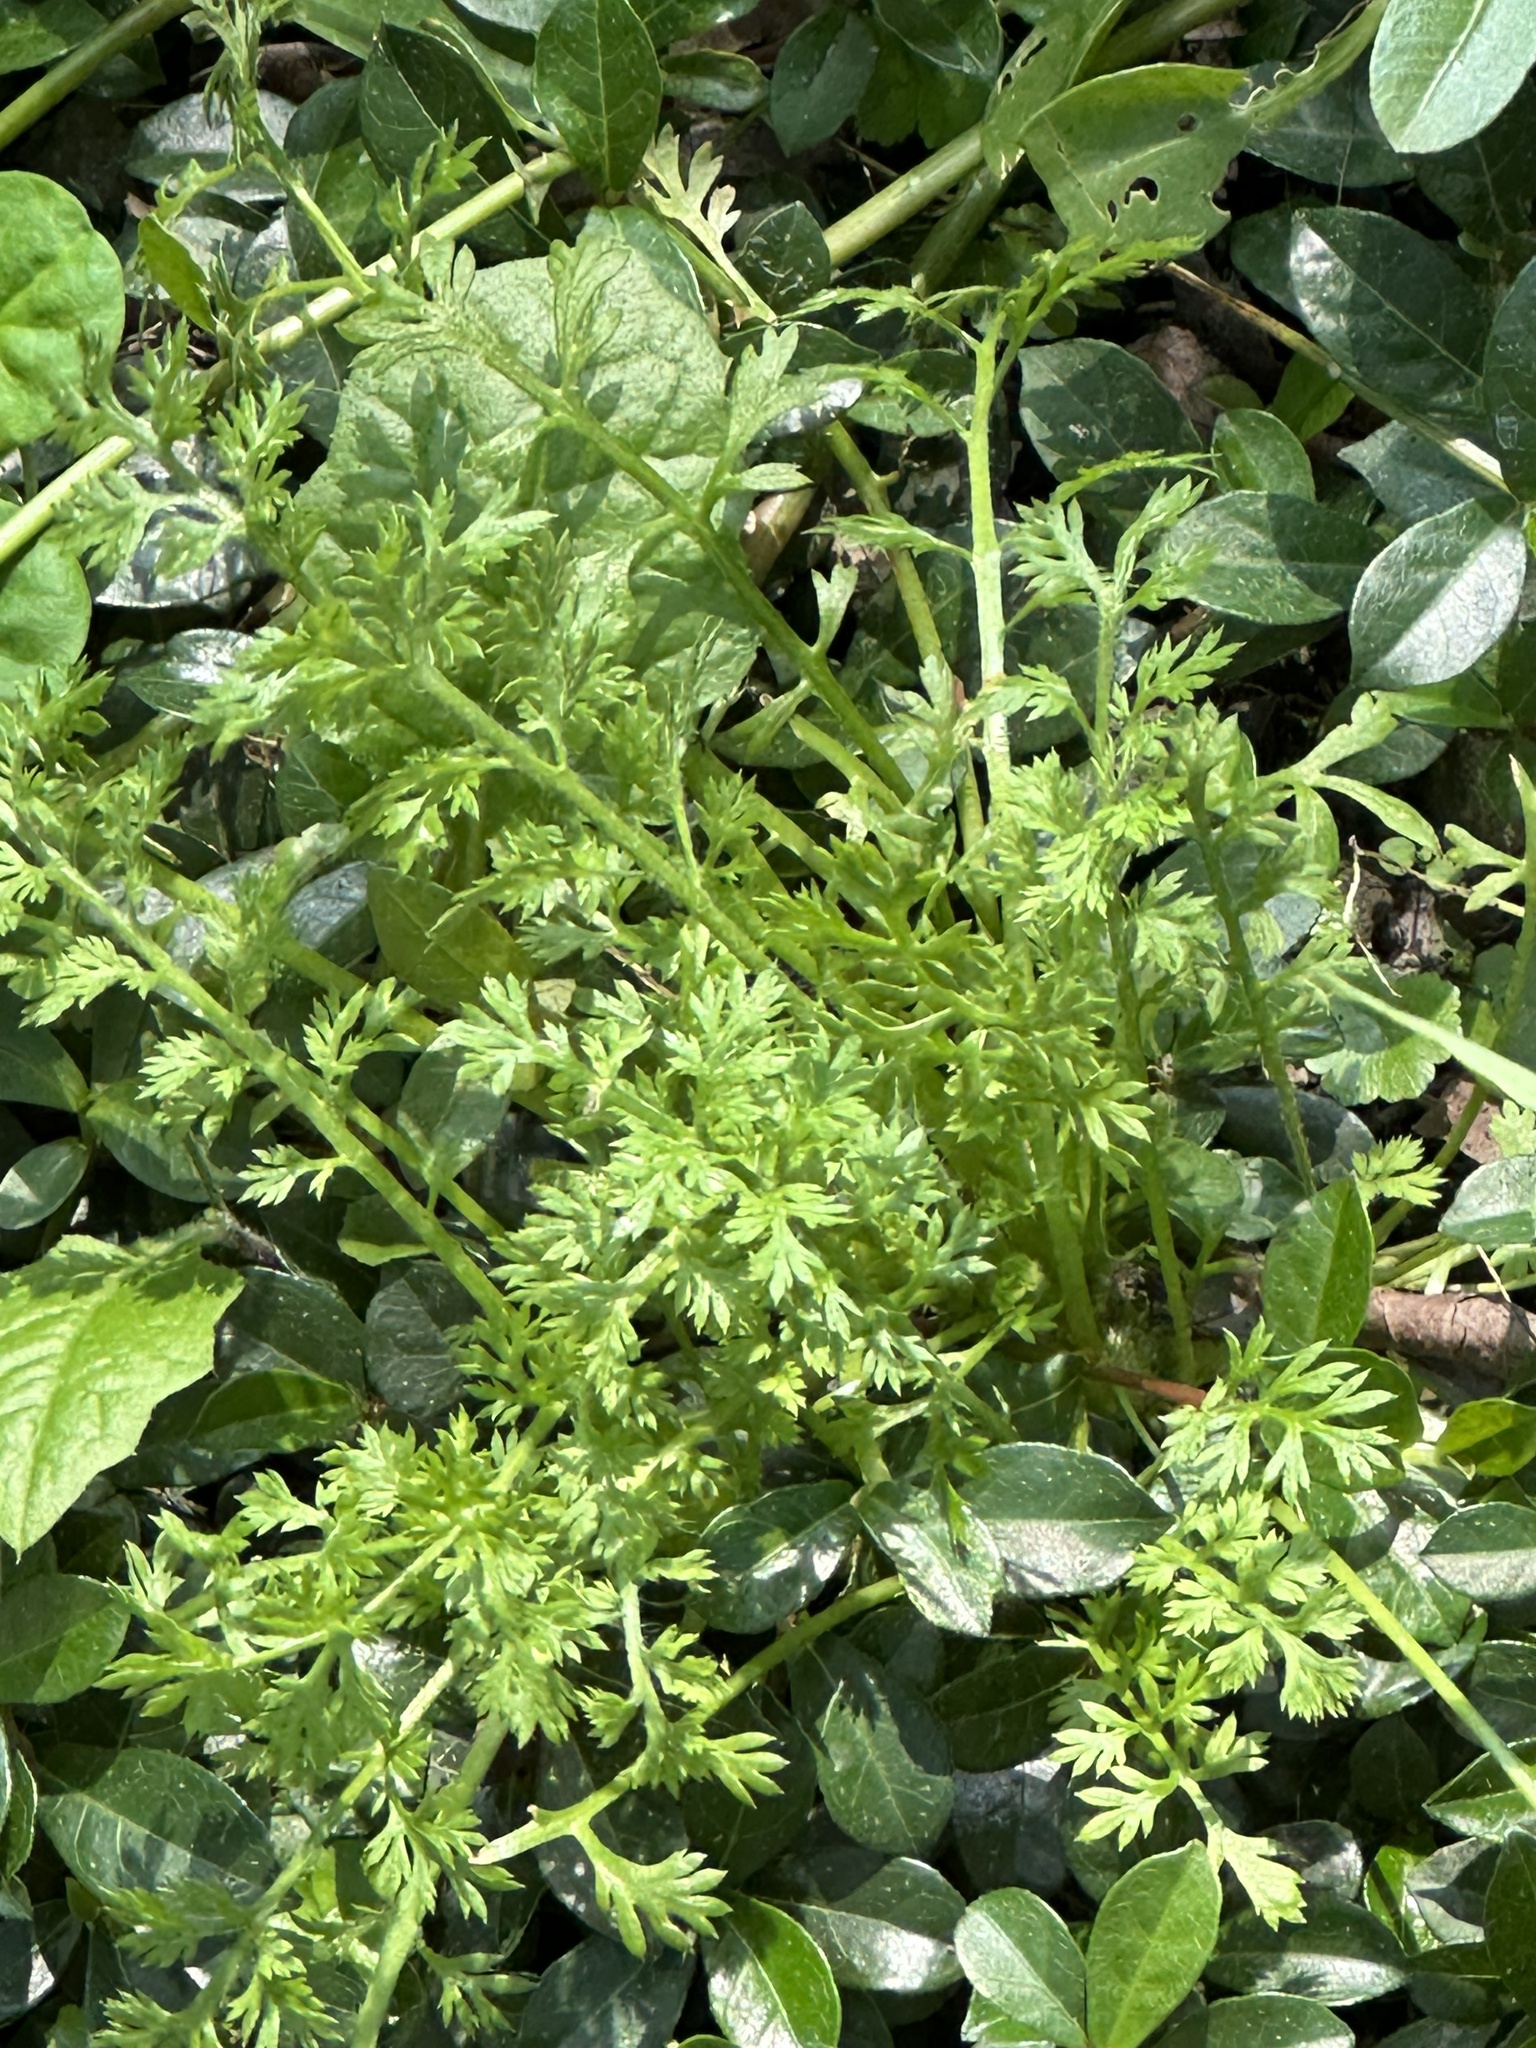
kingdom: Plantae
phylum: Tracheophyta
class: Magnoliopsida
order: Asterales
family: Asteraceae
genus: Soliva
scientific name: Soliva anthemifolia
